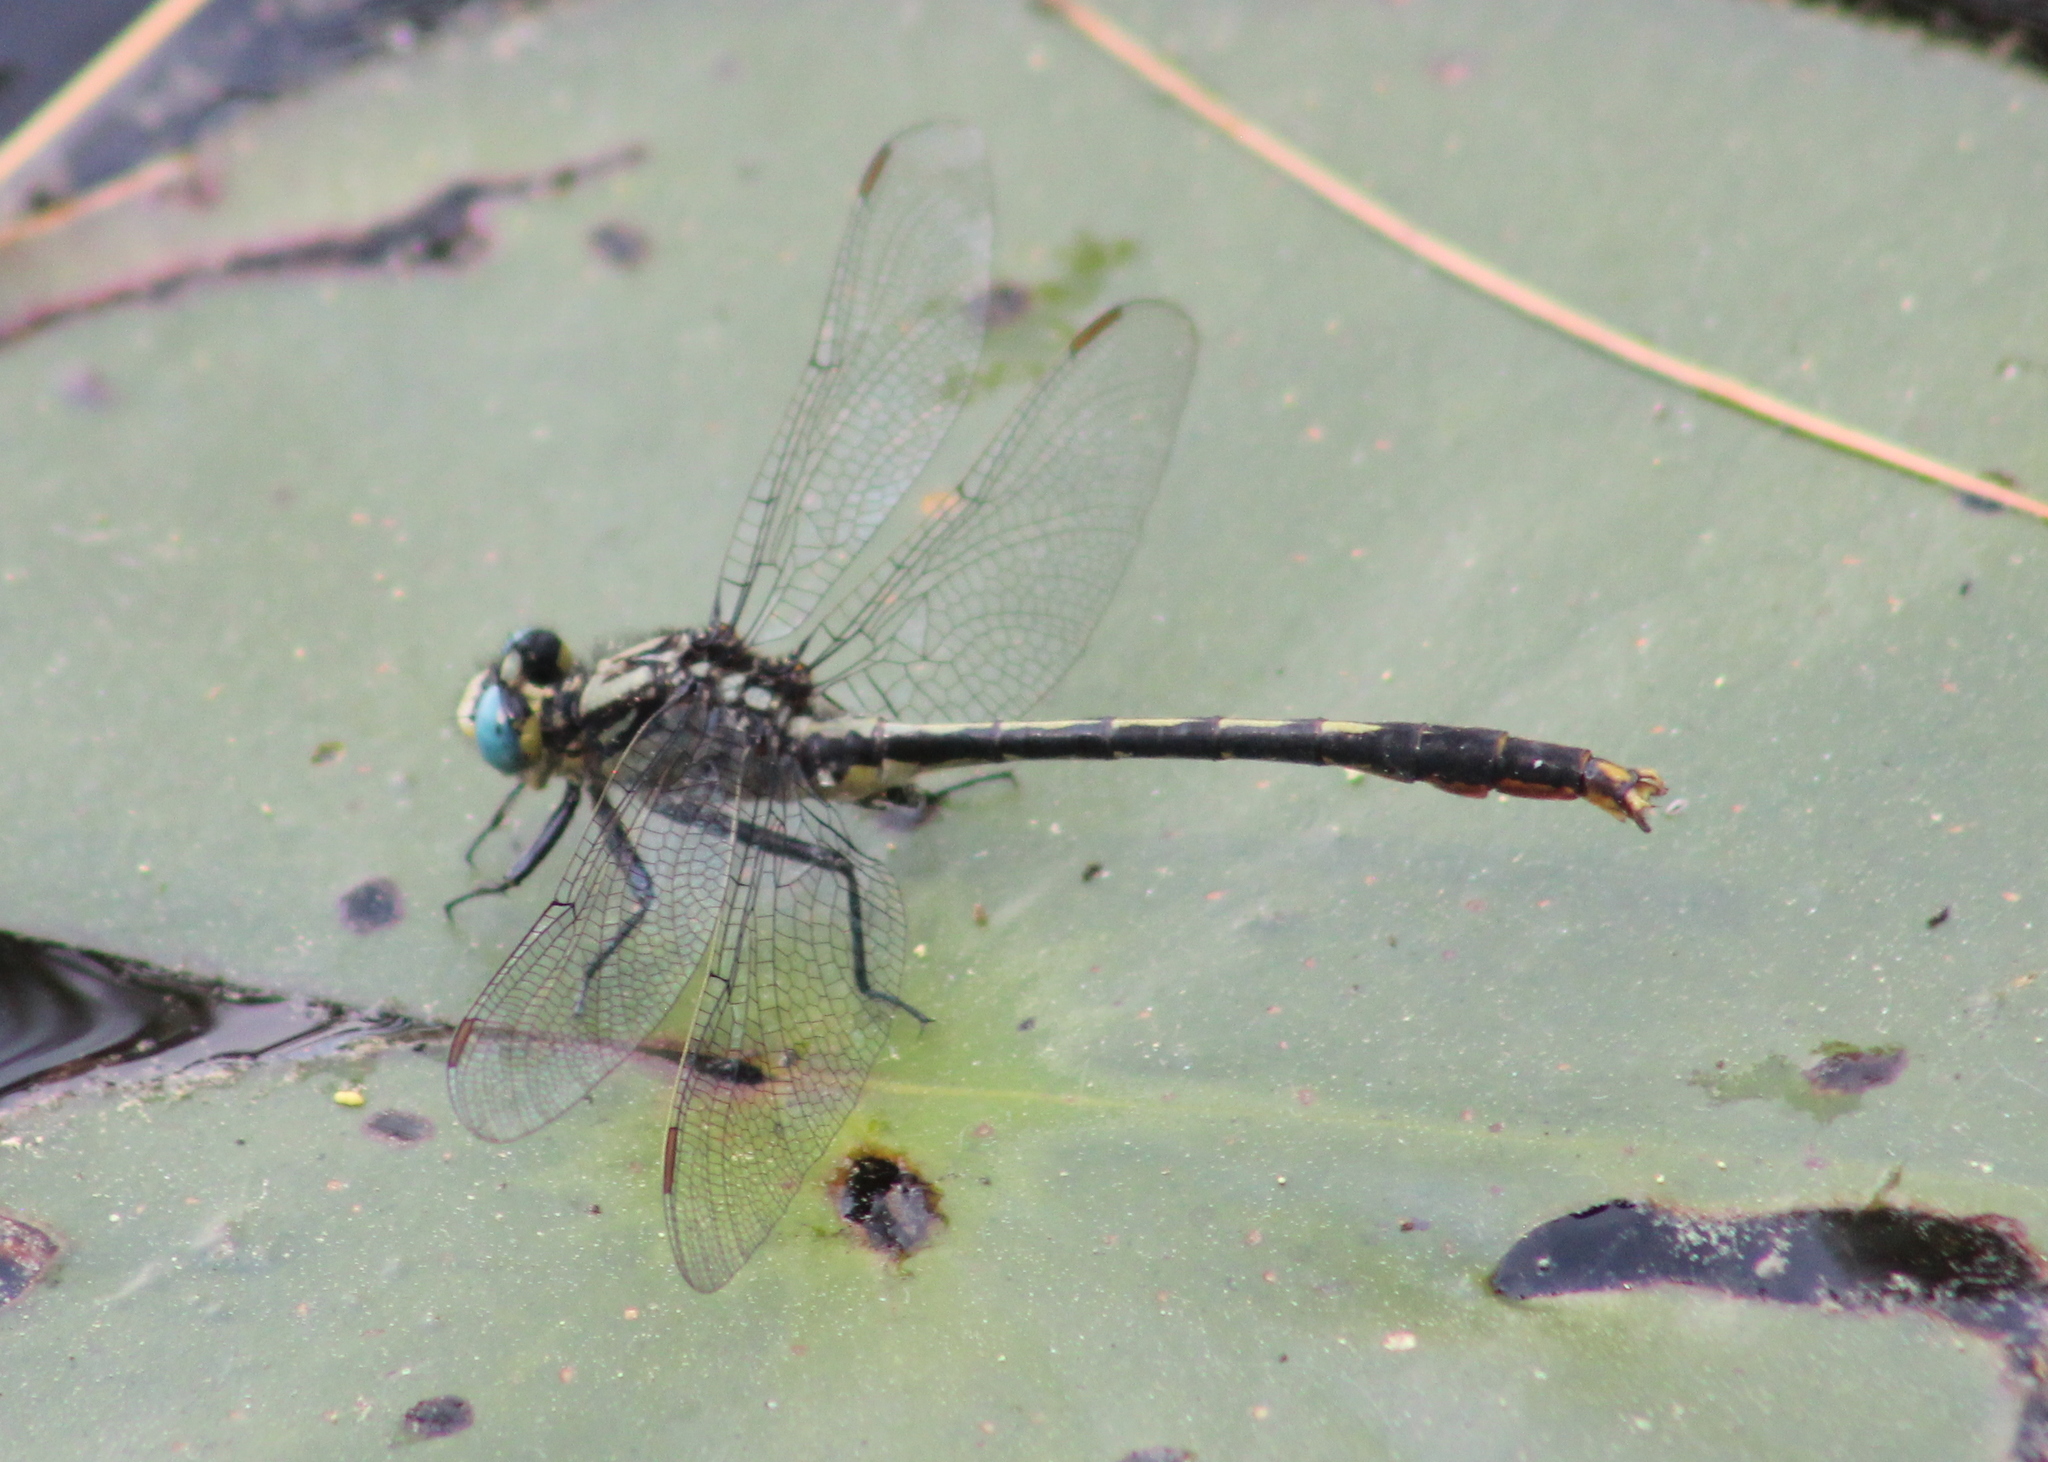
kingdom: Animalia
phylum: Arthropoda
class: Insecta
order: Odonata
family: Gomphidae
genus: Arigomphus
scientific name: Arigomphus furcifer
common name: Lilypad clubtail
